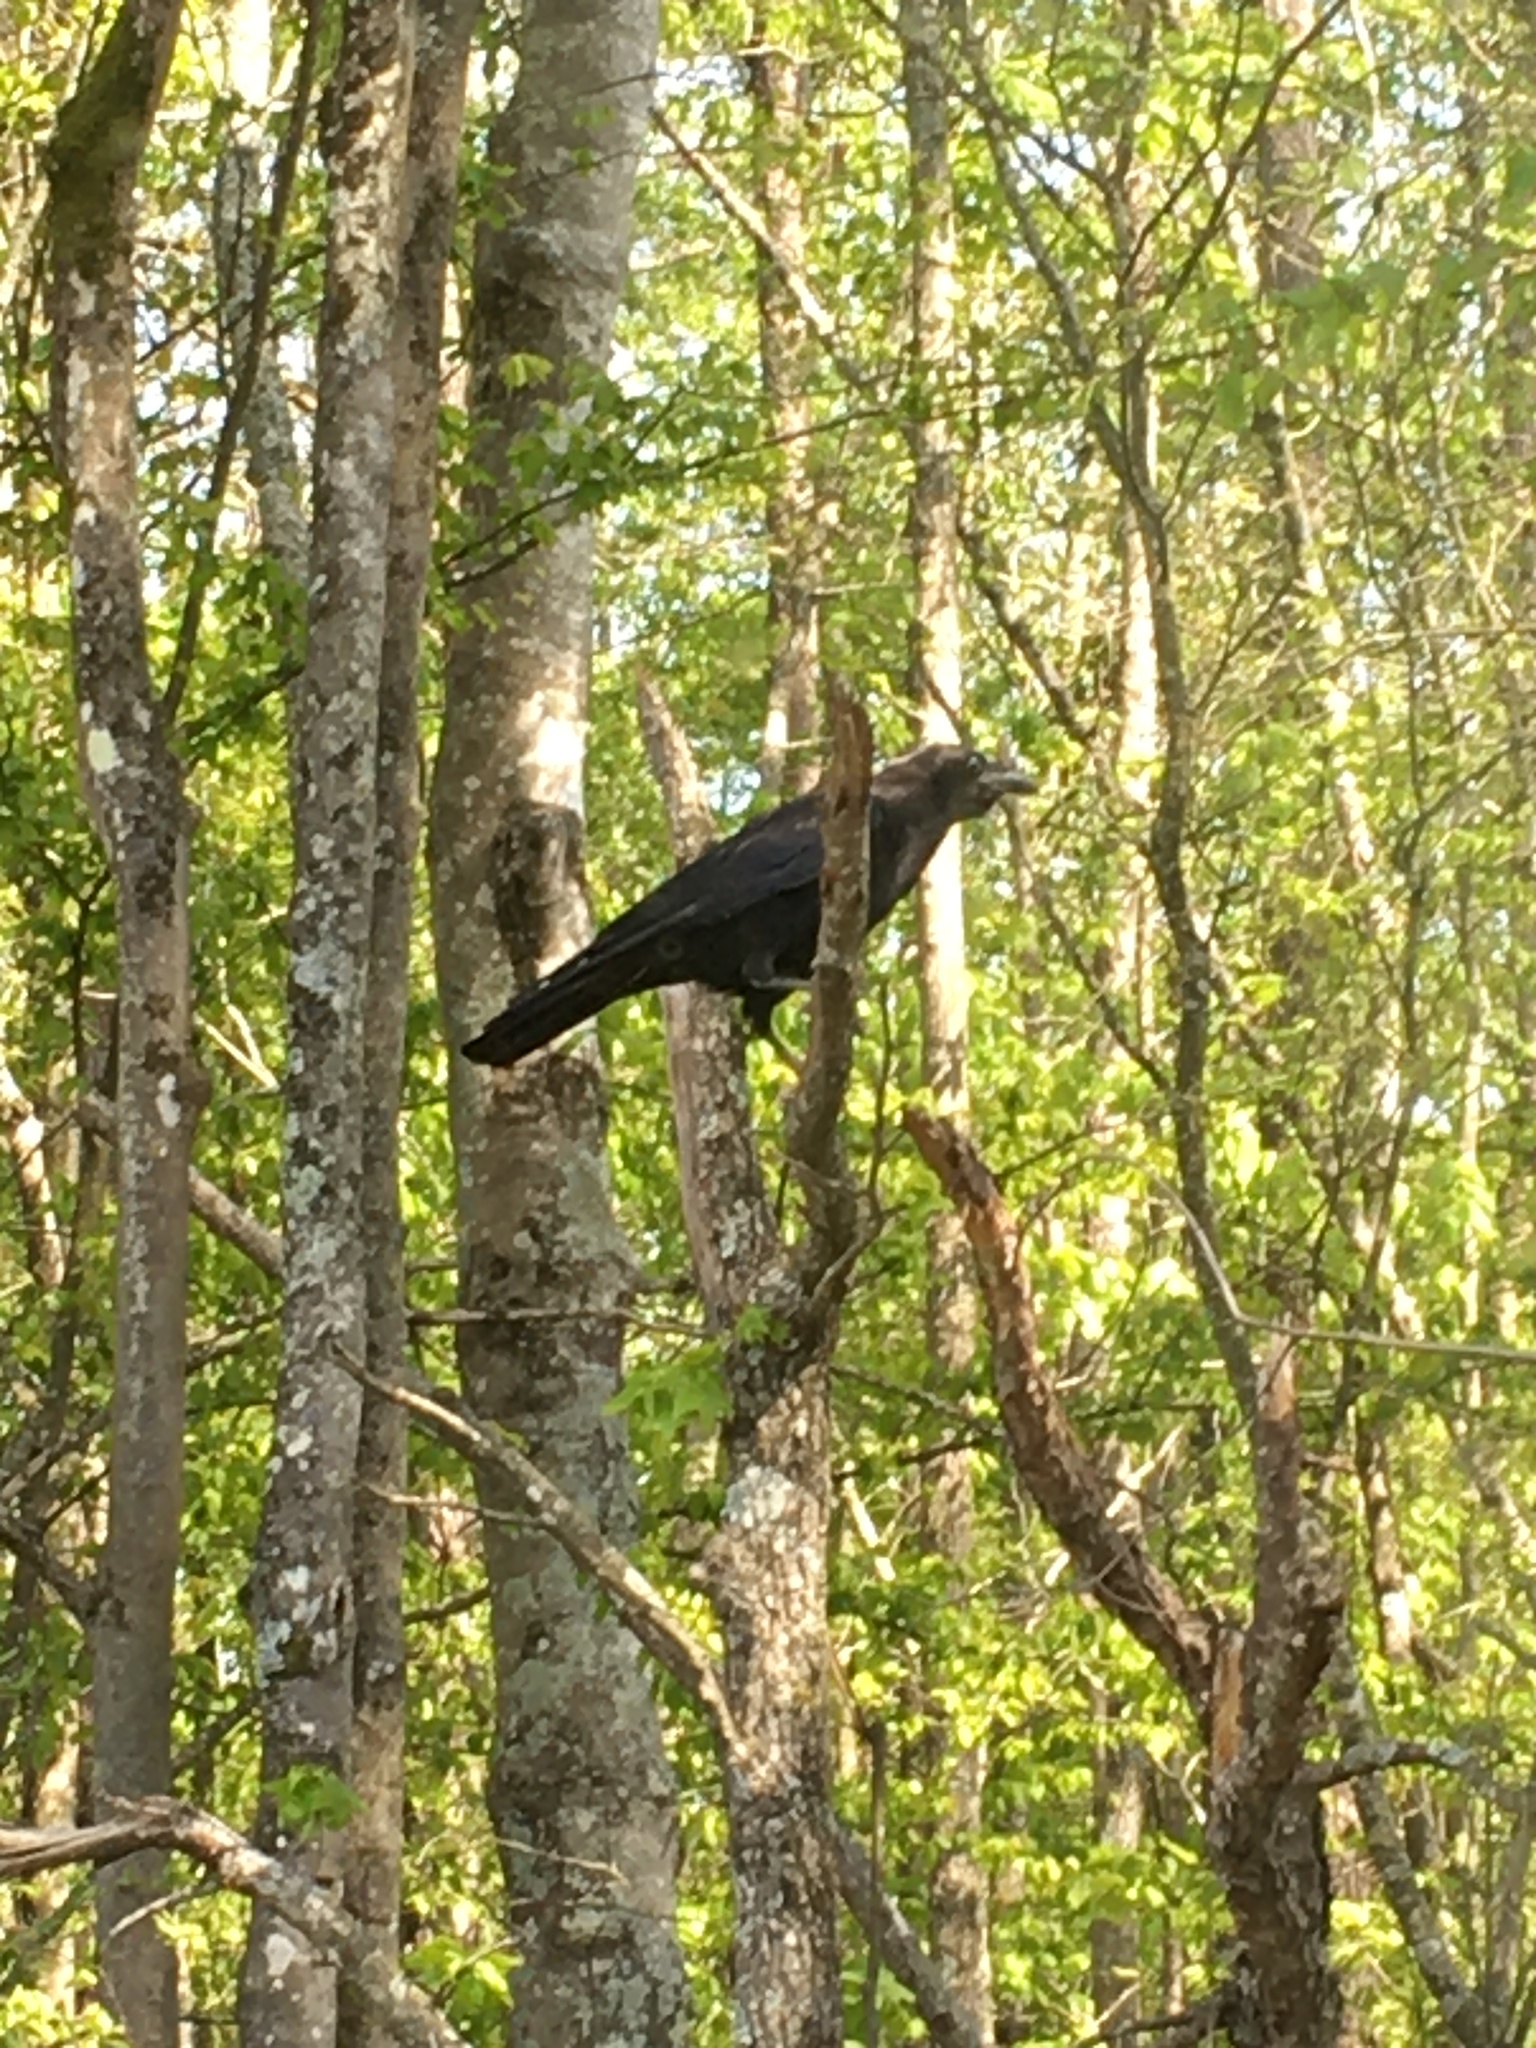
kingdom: Animalia
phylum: Chordata
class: Aves
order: Passeriformes
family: Corvidae
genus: Corvus
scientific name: Corvus
